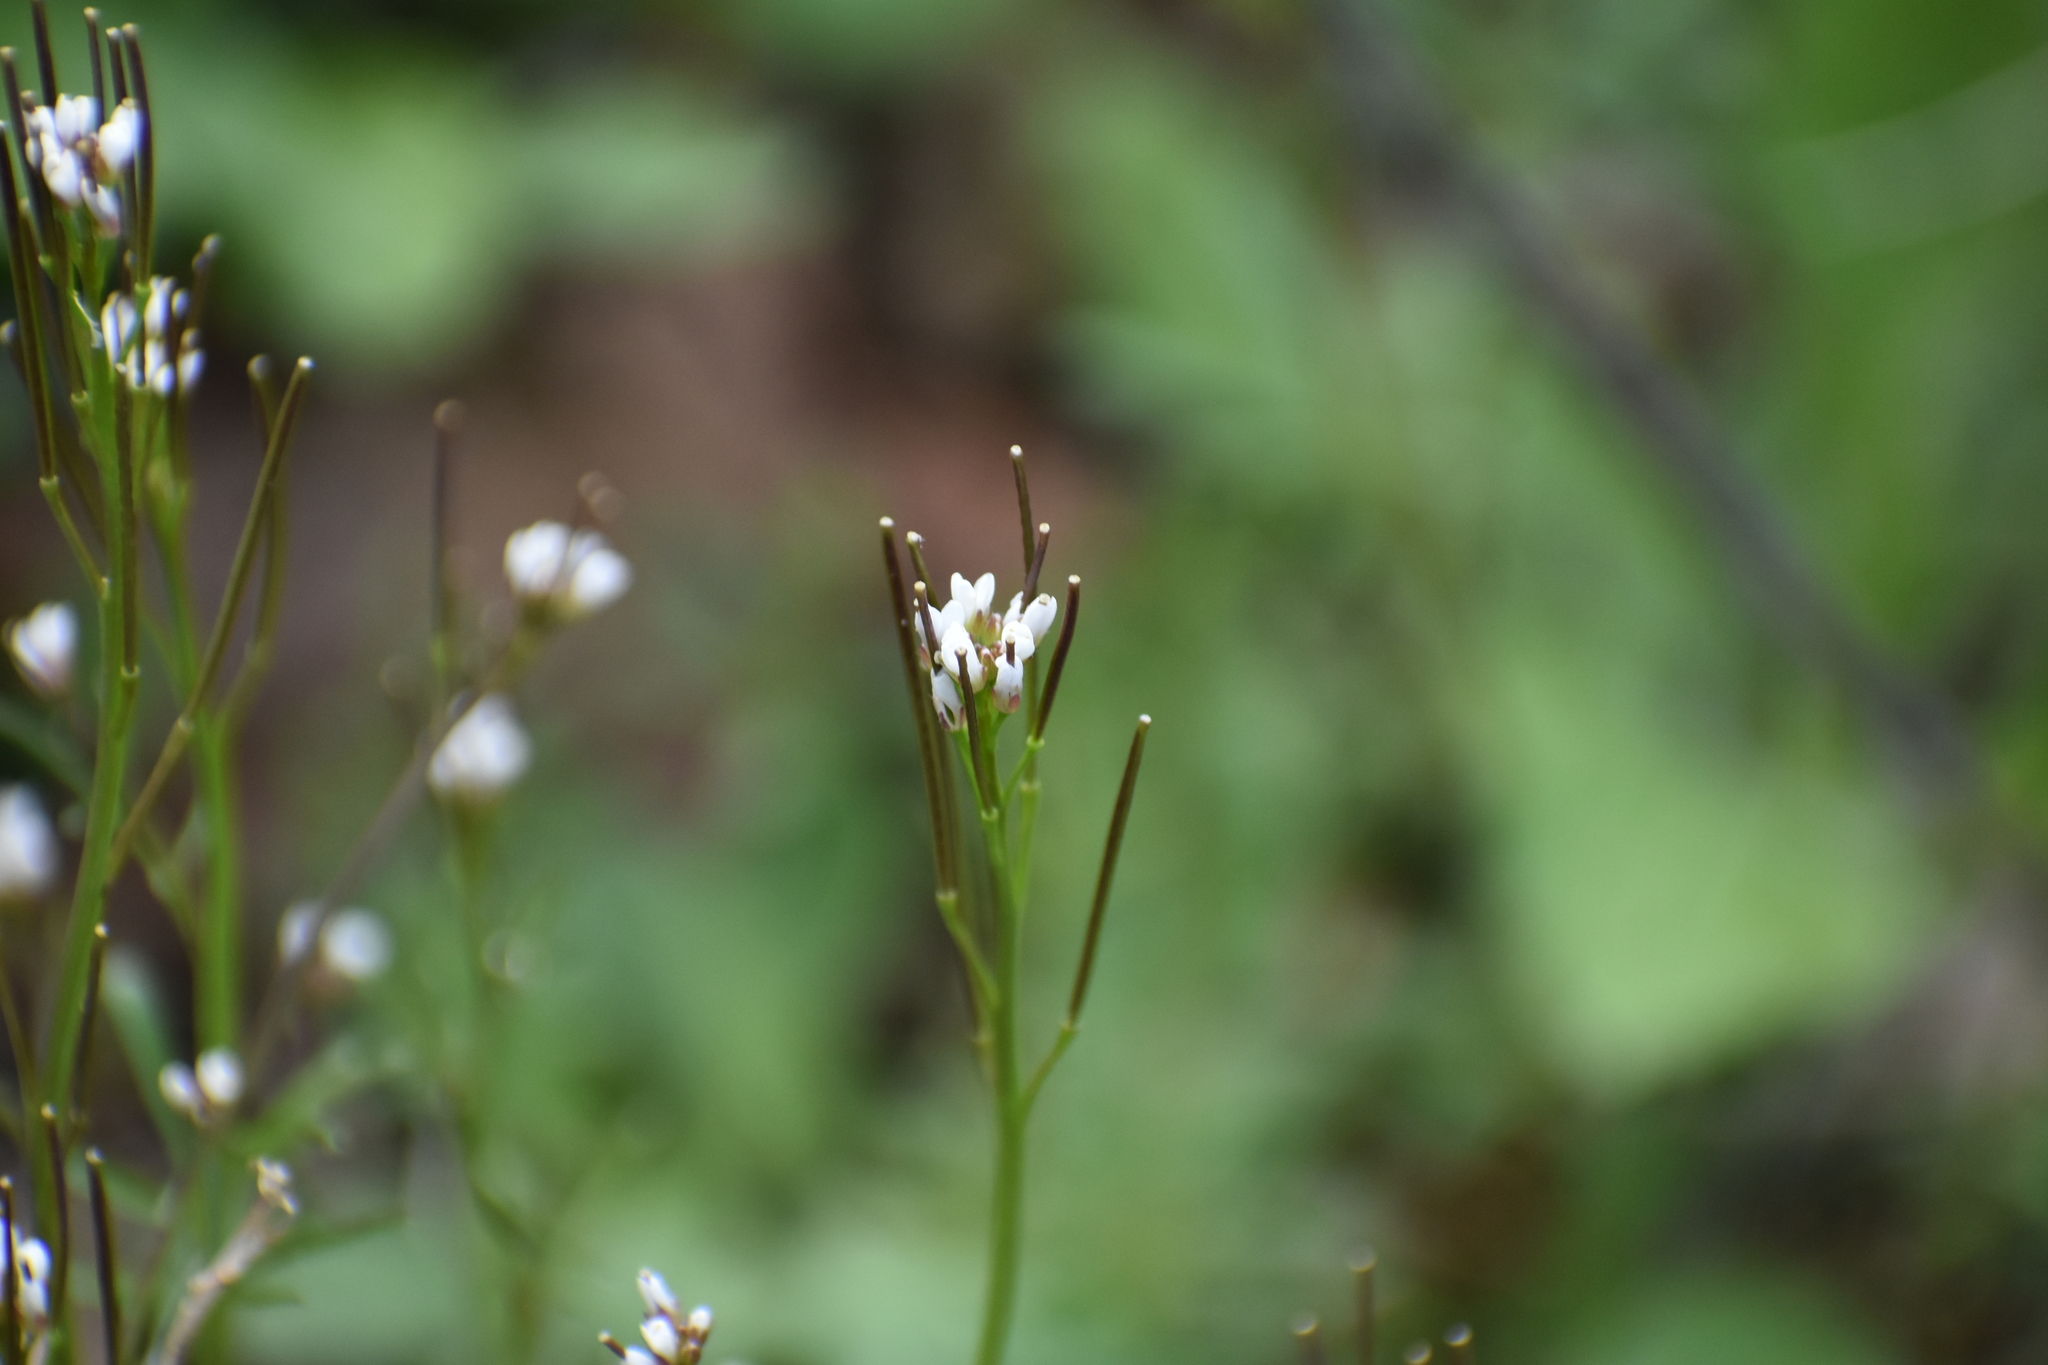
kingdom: Plantae
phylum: Tracheophyta
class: Magnoliopsida
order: Brassicales
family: Brassicaceae
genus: Cardamine
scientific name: Cardamine hirsuta
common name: Hairy bittercress
